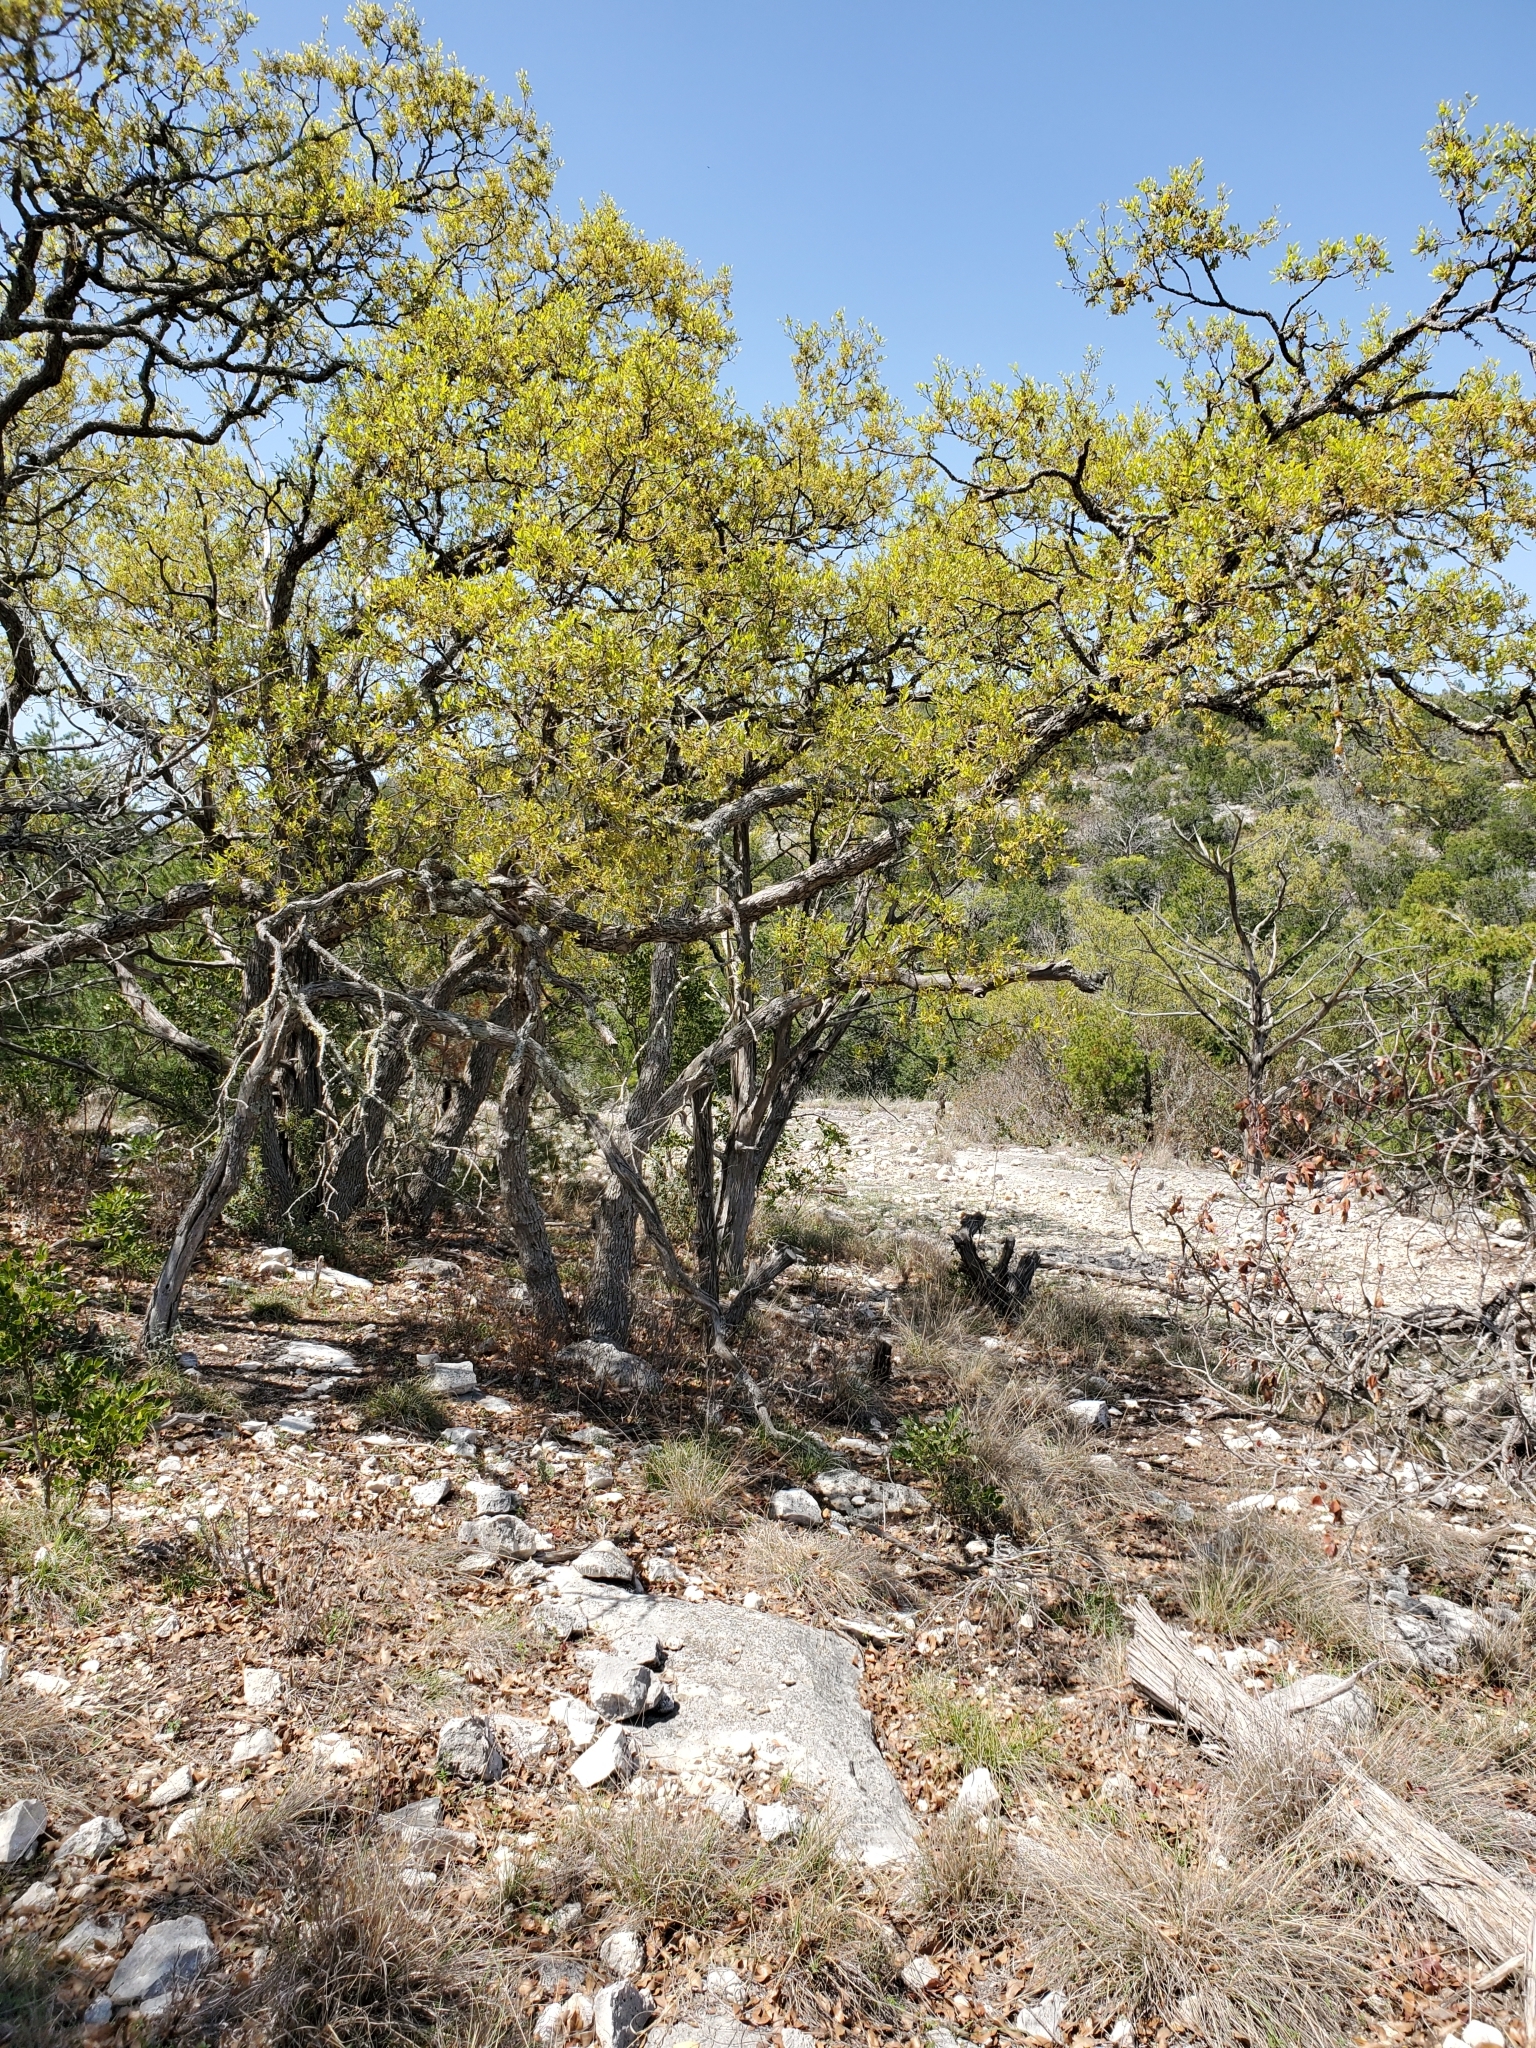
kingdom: Plantae
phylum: Tracheophyta
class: Magnoliopsida
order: Fagales
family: Fagaceae
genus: Quercus
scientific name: Quercus vaseyana
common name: Sandpaper oak
